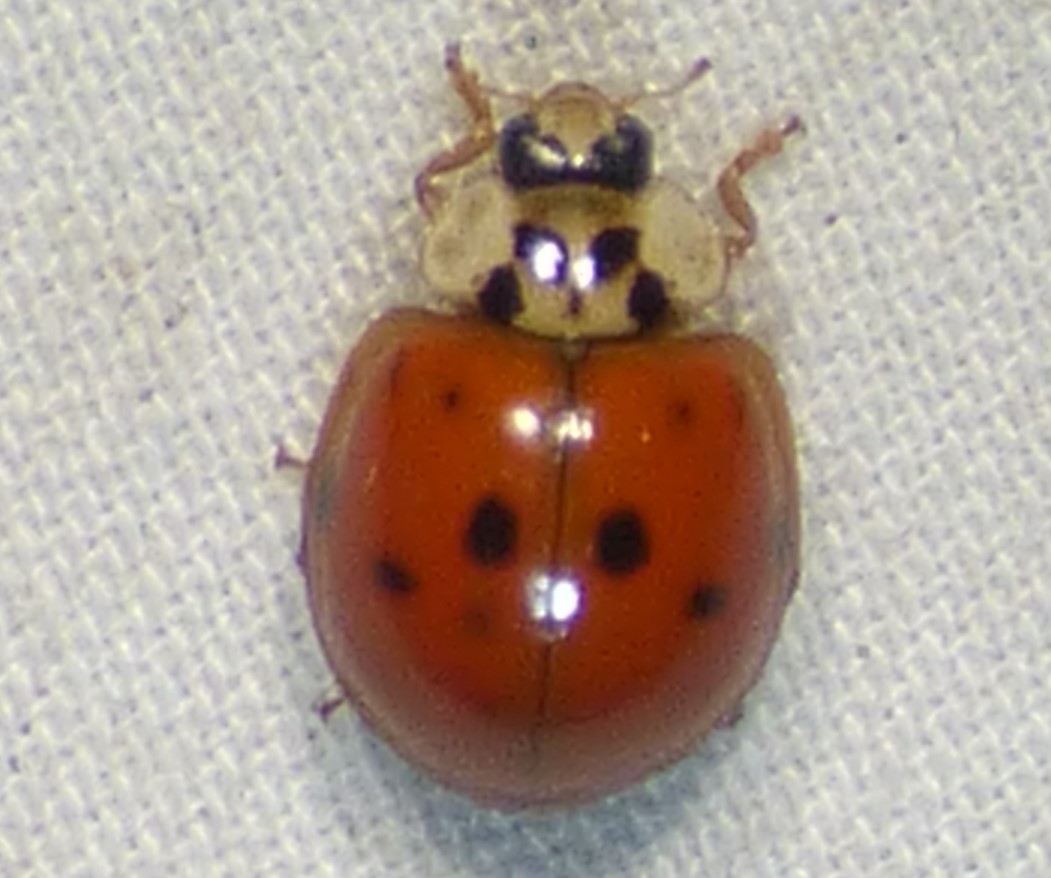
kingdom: Animalia
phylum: Arthropoda
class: Insecta
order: Coleoptera
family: Coccinellidae
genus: Harmonia
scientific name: Harmonia axyridis
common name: Harlequin ladybird
